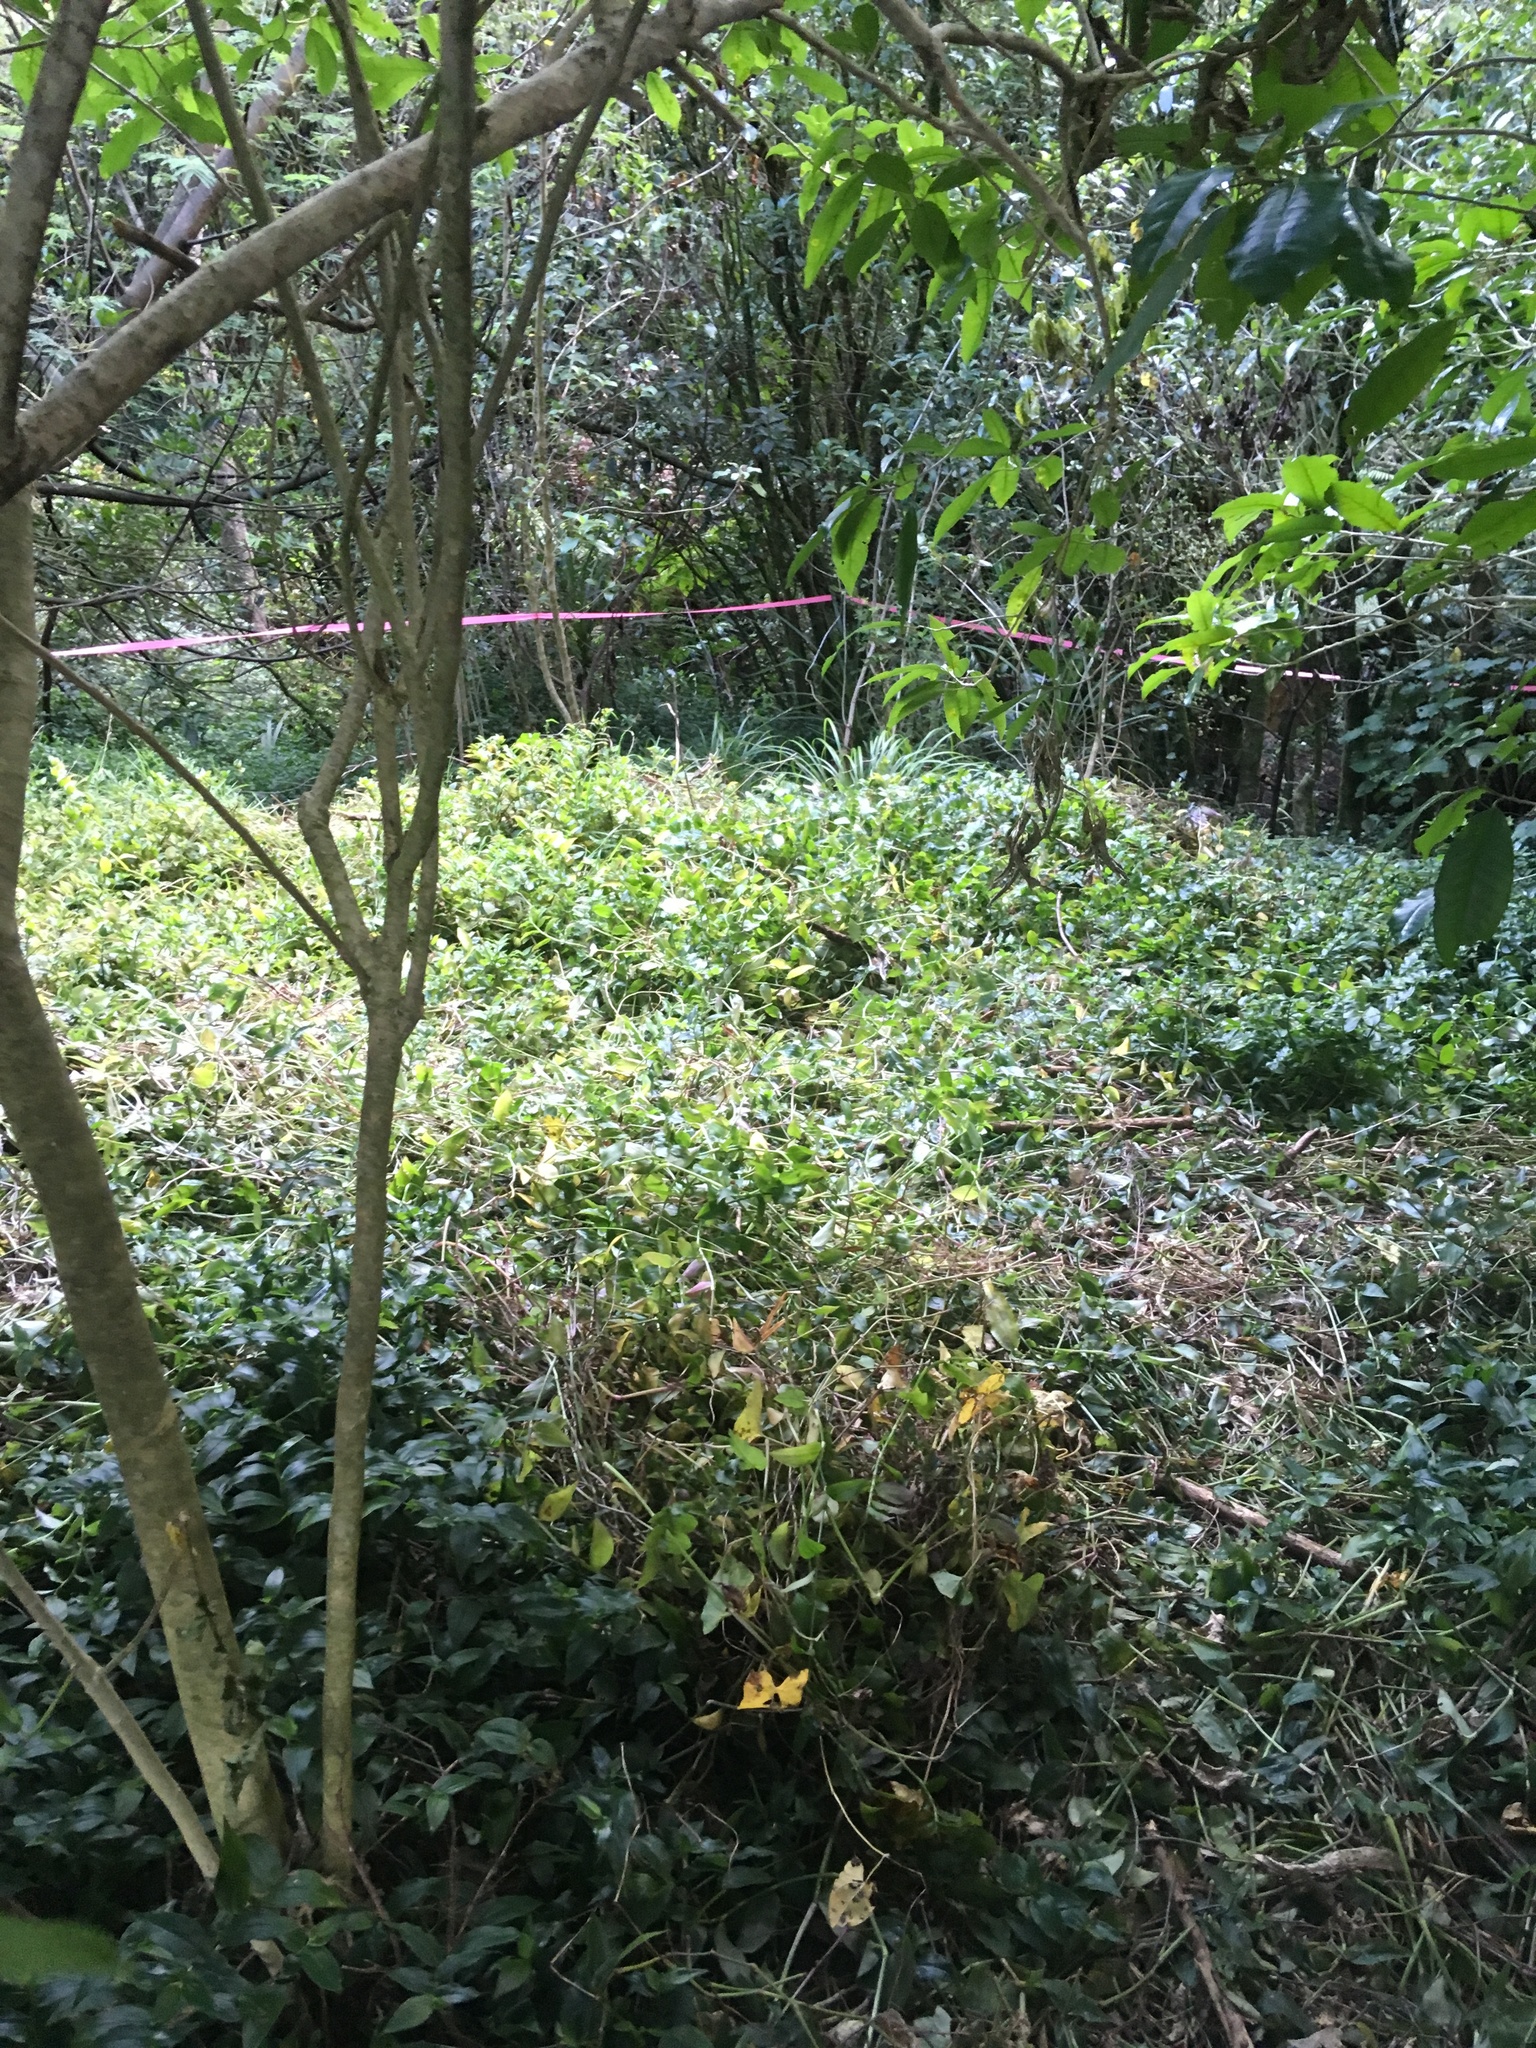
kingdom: Plantae
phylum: Tracheophyta
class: Liliopsida
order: Commelinales
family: Commelinaceae
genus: Tradescantia
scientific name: Tradescantia fluminensis
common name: Wandering-jew
